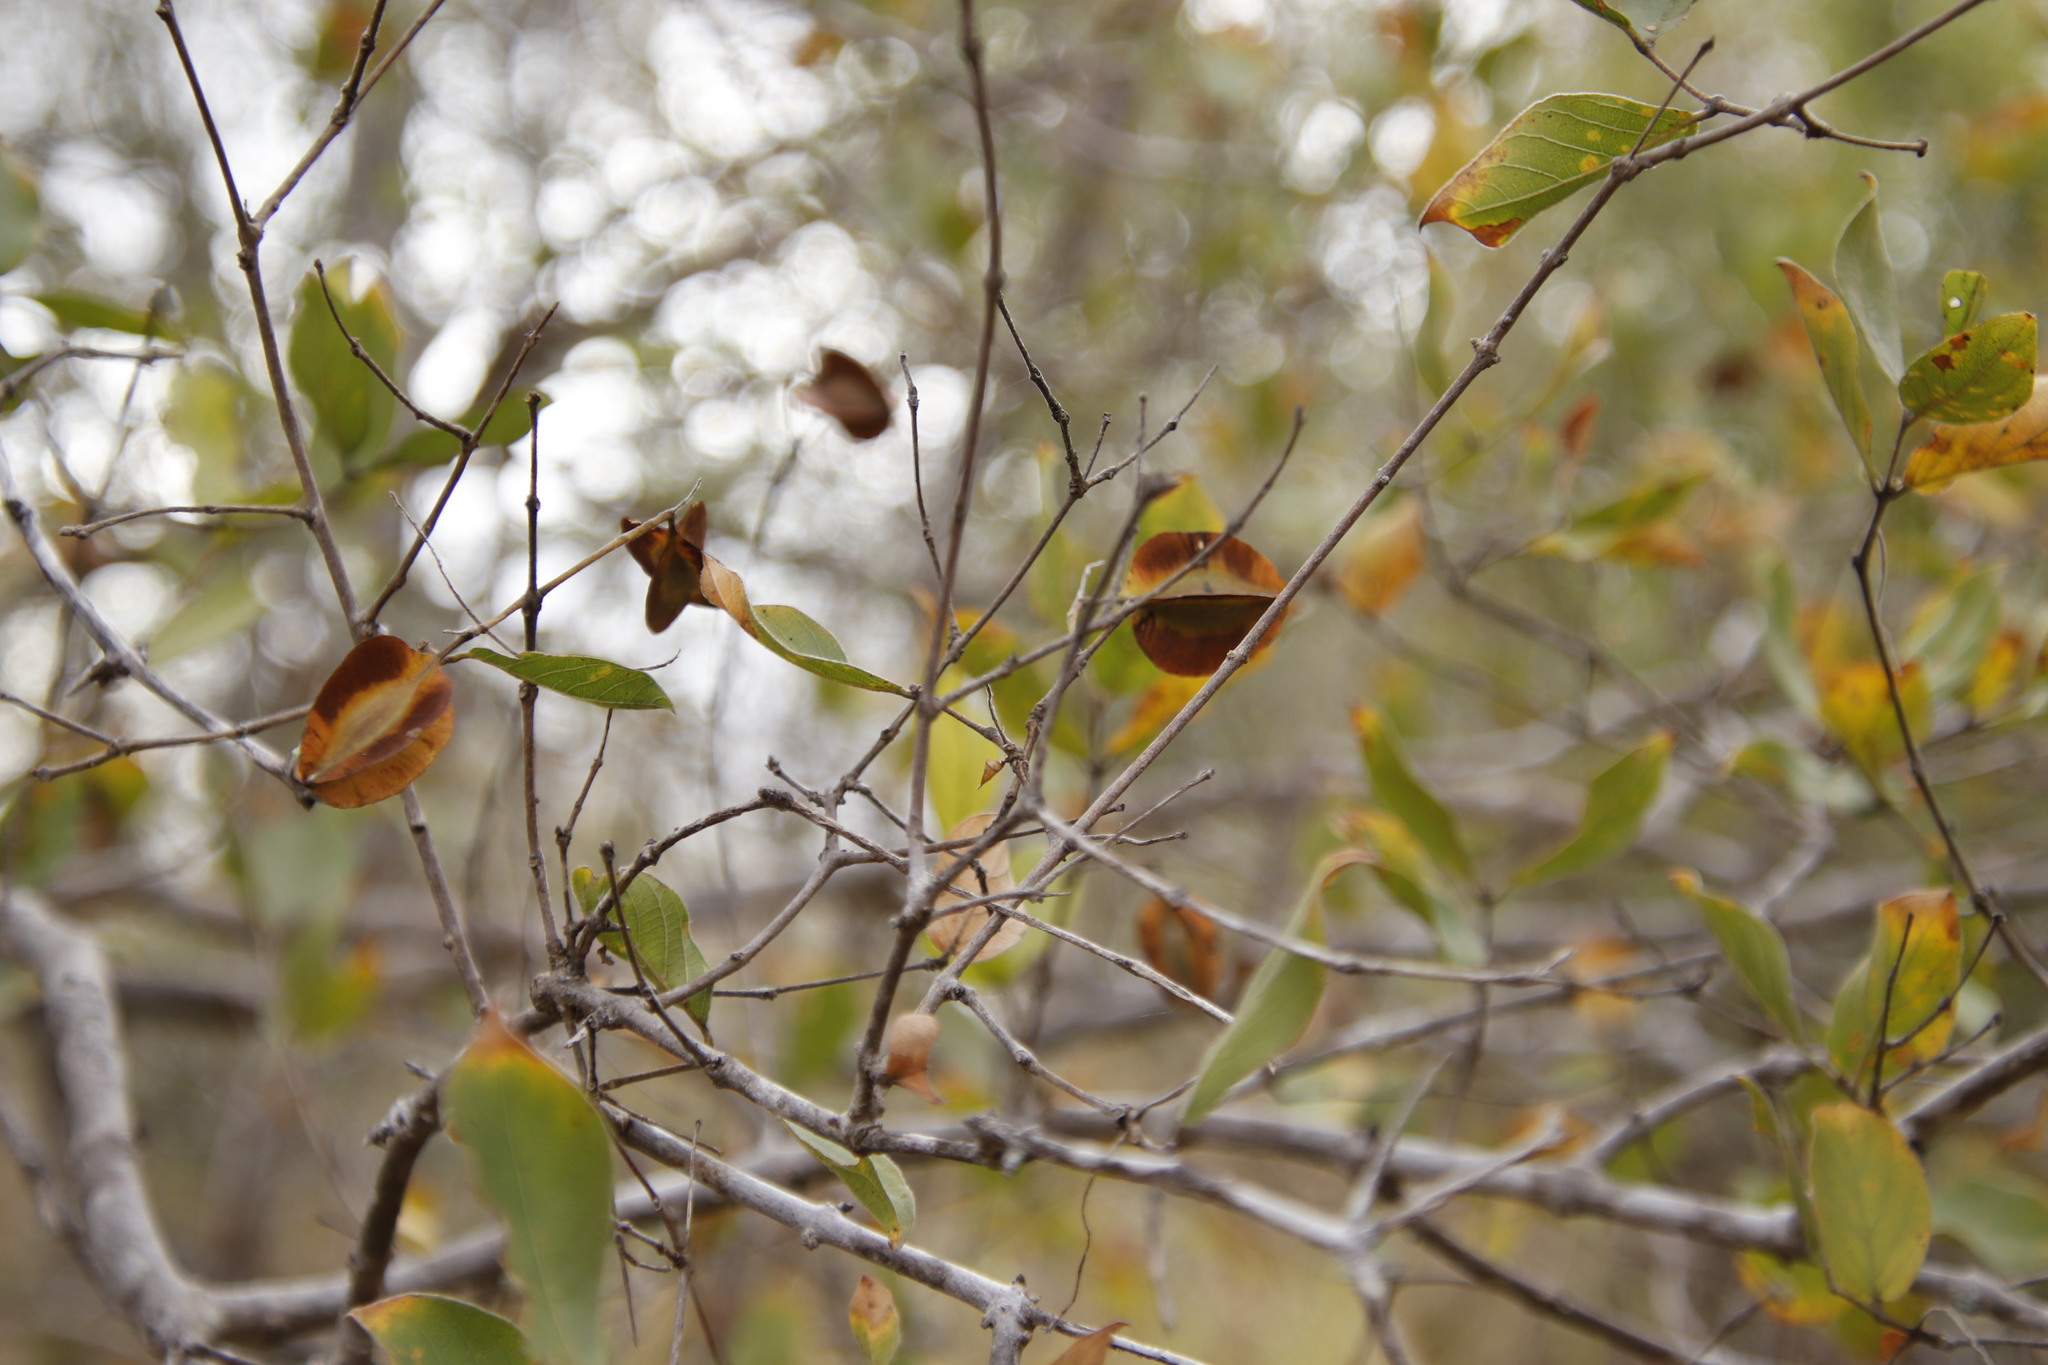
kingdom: Plantae
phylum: Tracheophyta
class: Magnoliopsida
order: Myrtales
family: Combretaceae
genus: Combretum
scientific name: Combretum apiculatum
